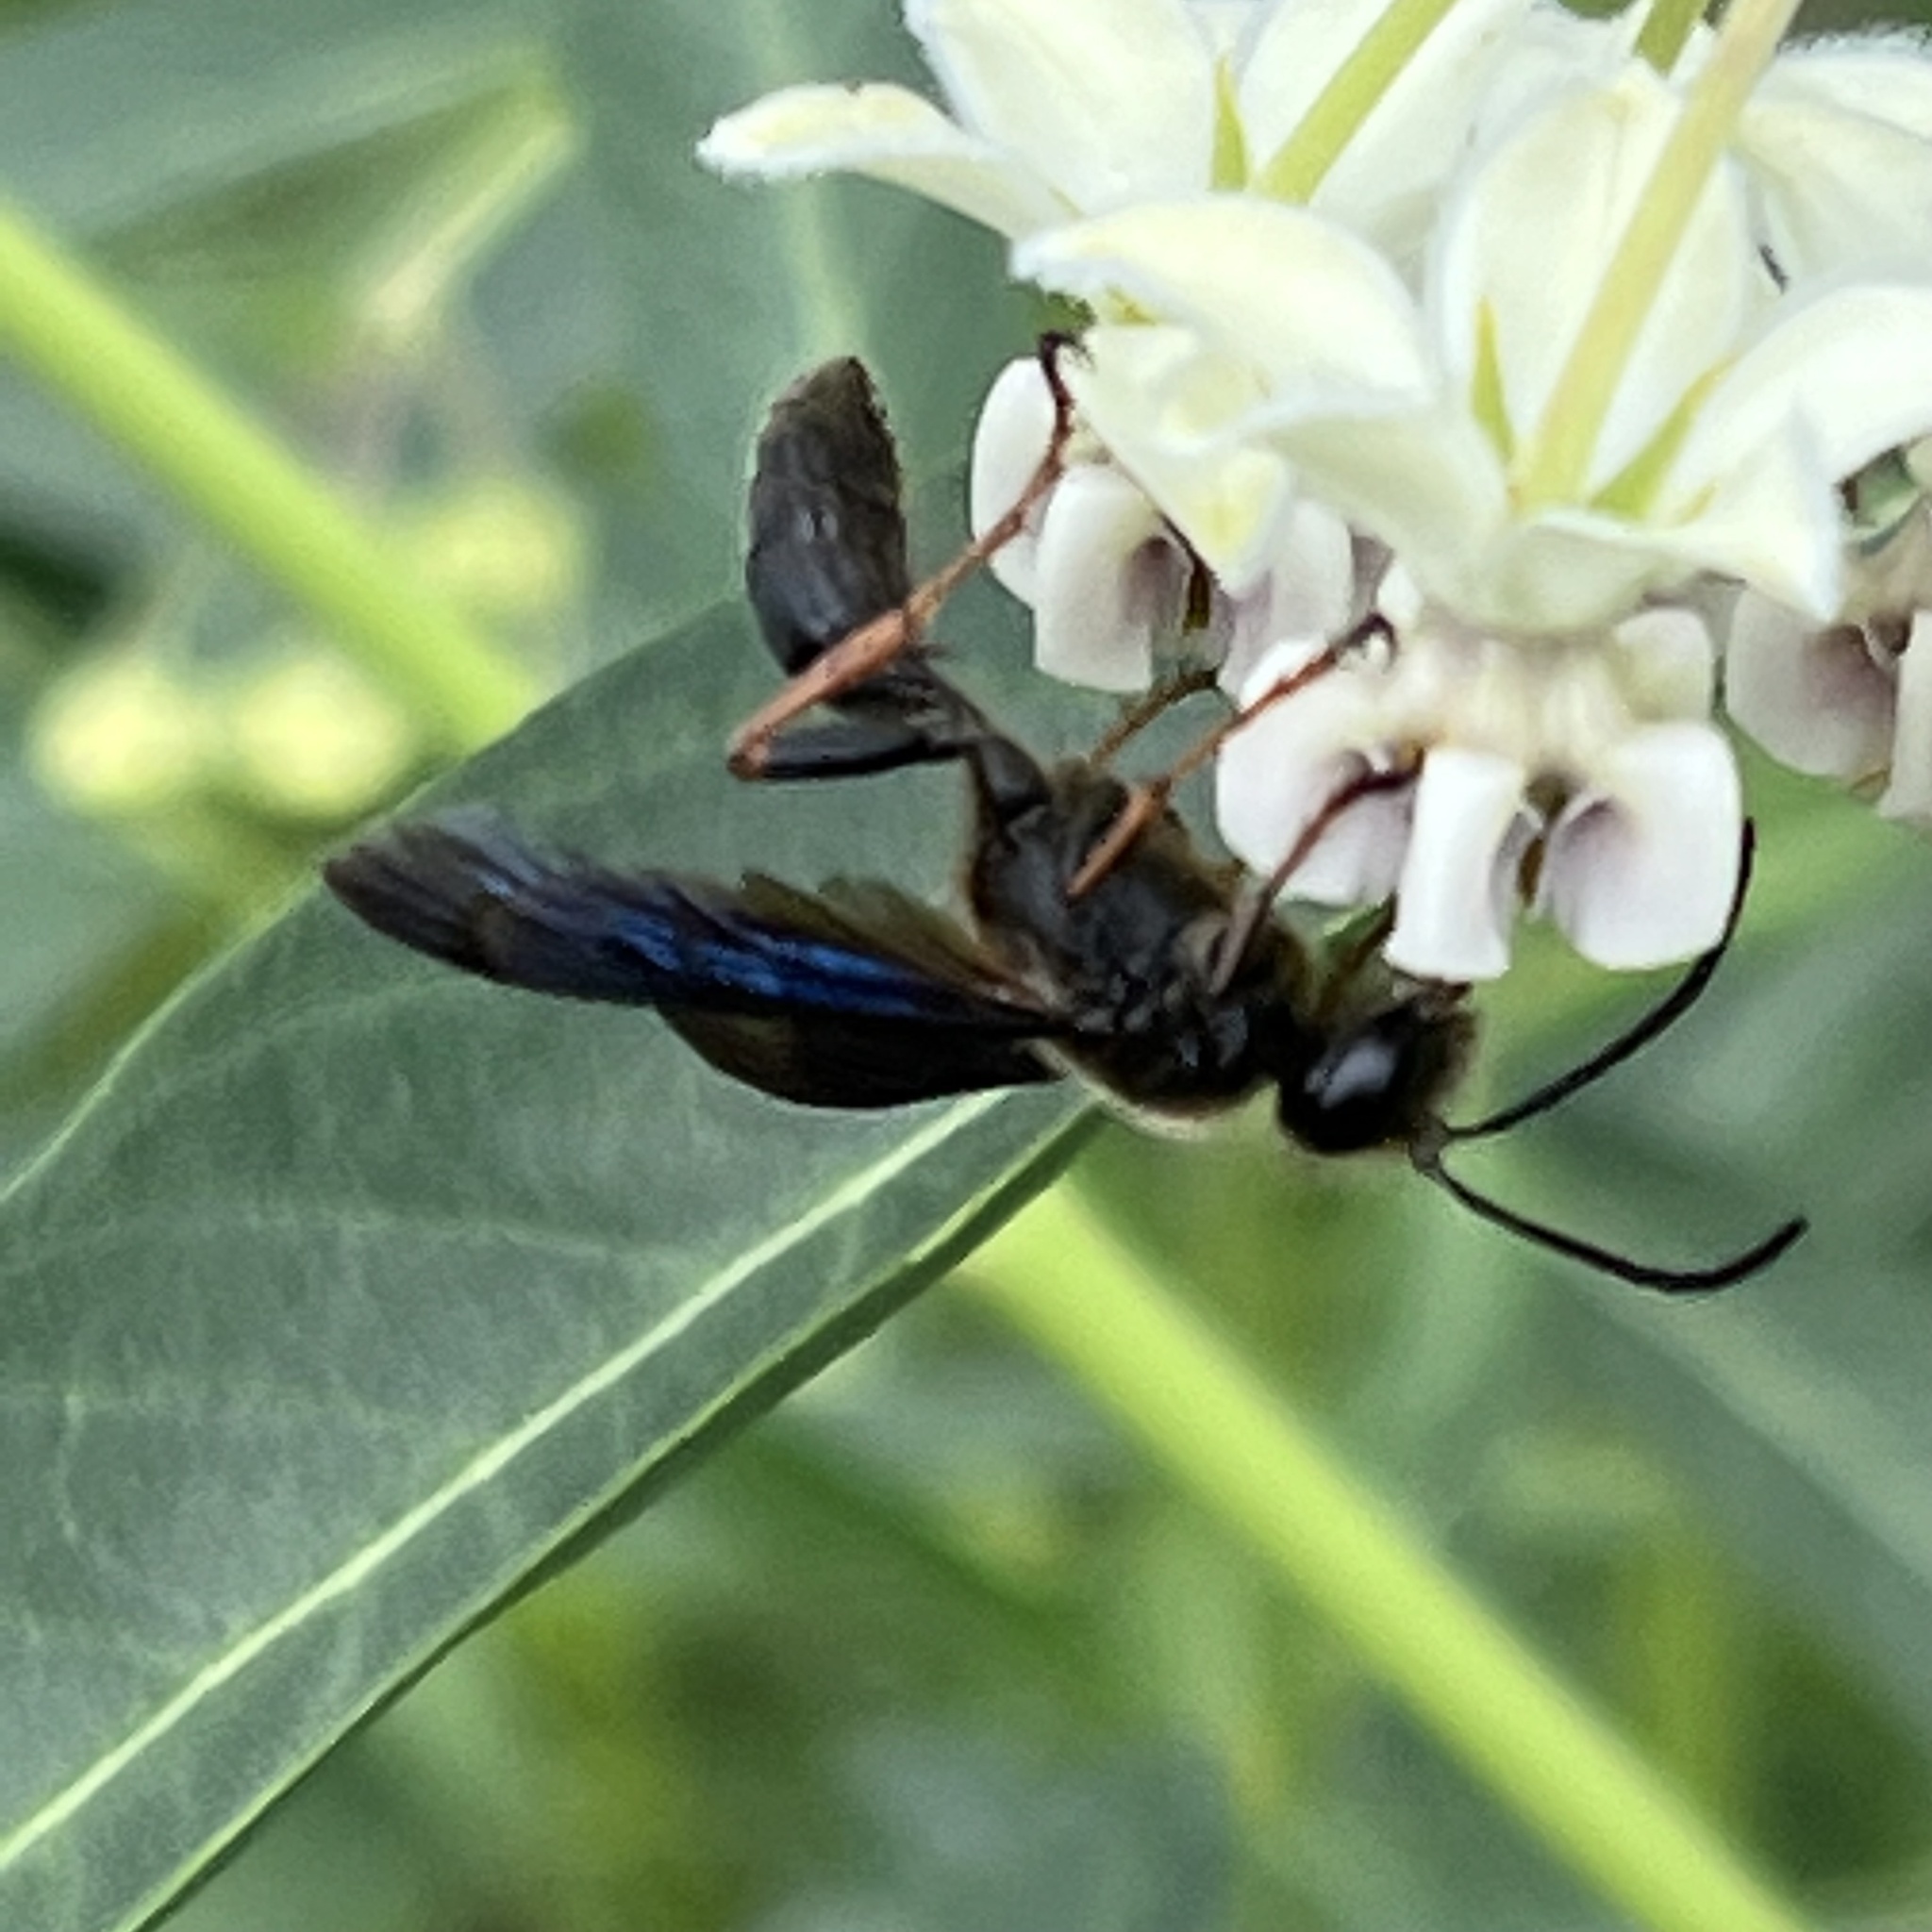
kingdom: Animalia
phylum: Arthropoda
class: Insecta
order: Hymenoptera
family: Sphecidae
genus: Isodontia
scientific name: Isodontia auripes
